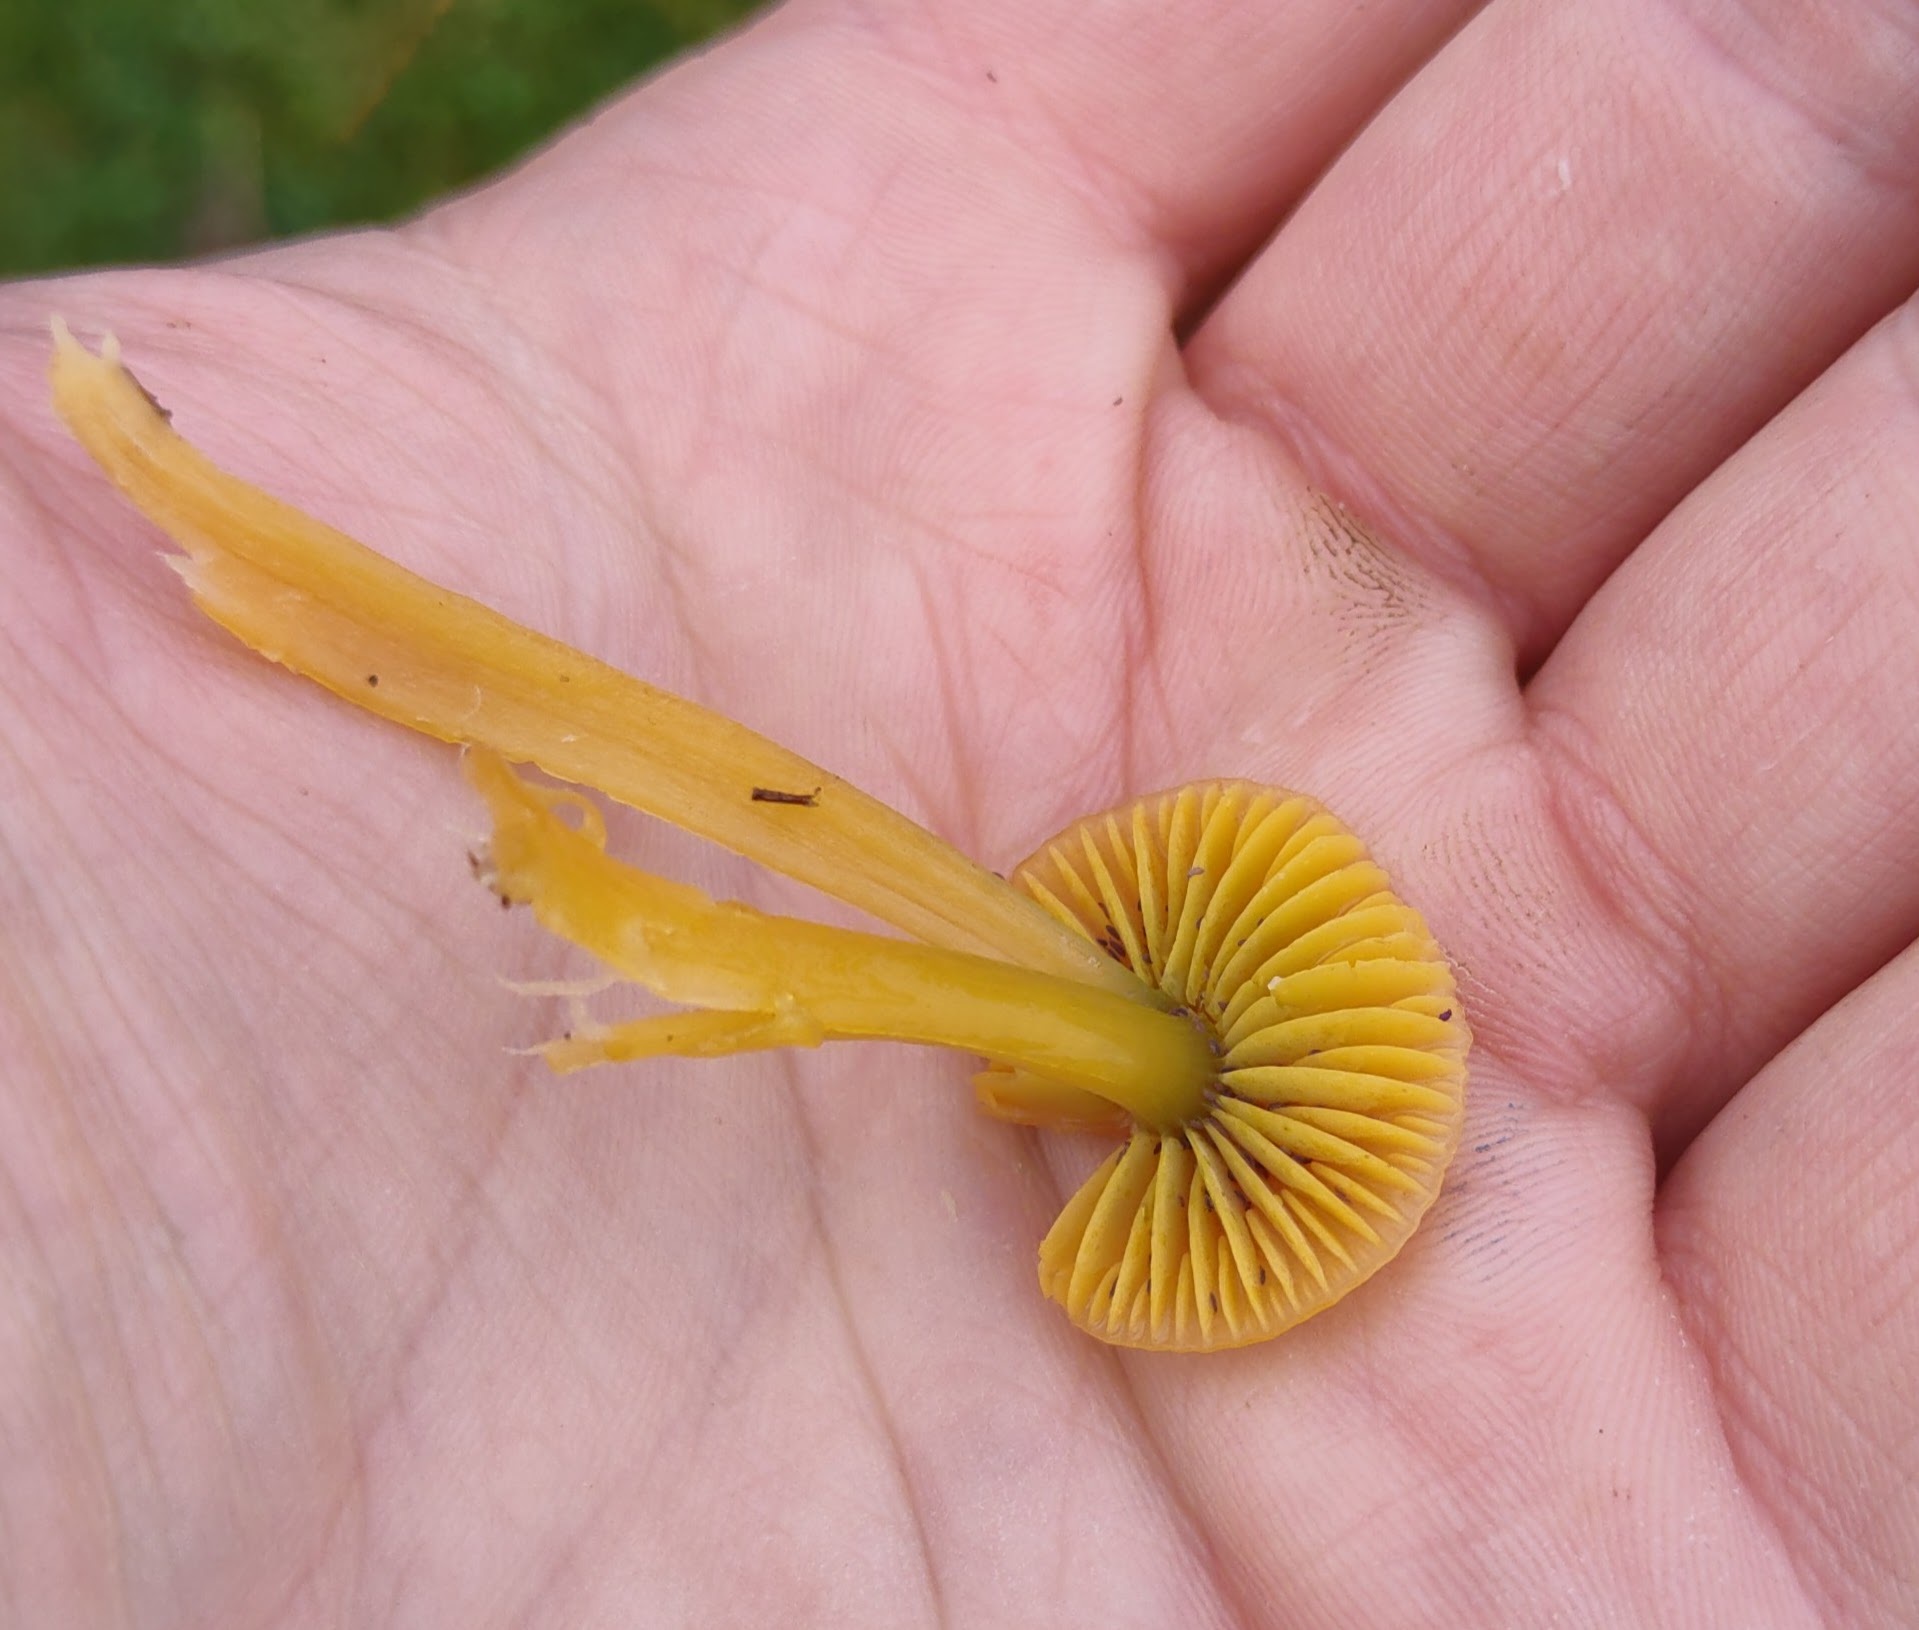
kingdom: Fungi
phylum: Basidiomycota
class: Agaricomycetes
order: Agaricales
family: Hygrophoraceae
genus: Gliophorus
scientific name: Gliophorus psittacinus
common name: Parrot wax-cap
